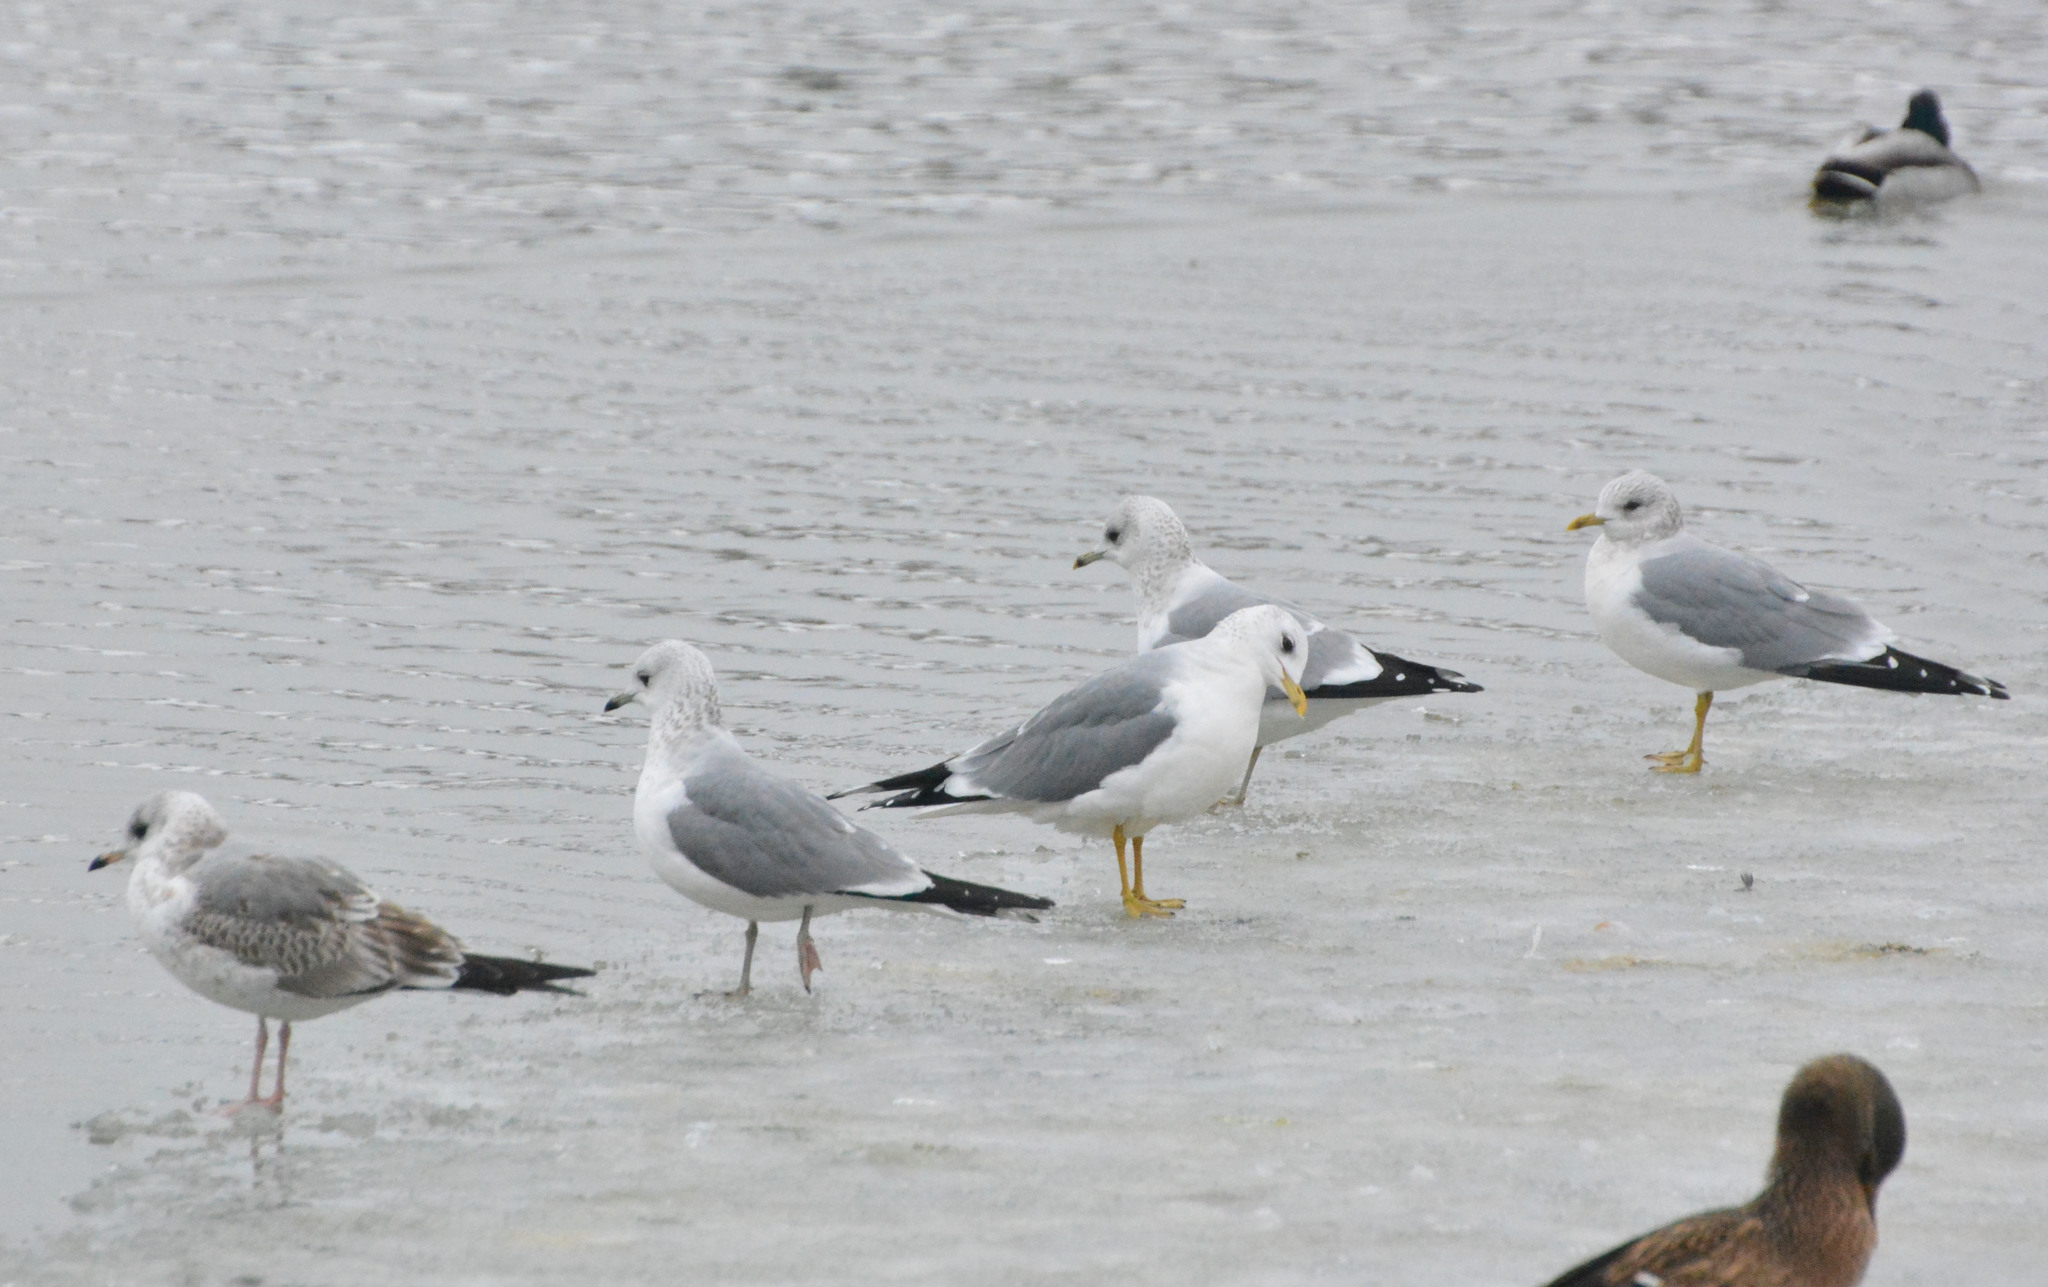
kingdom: Animalia
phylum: Chordata
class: Aves
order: Charadriiformes
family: Laridae
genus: Larus
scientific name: Larus canus
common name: Mew gull
